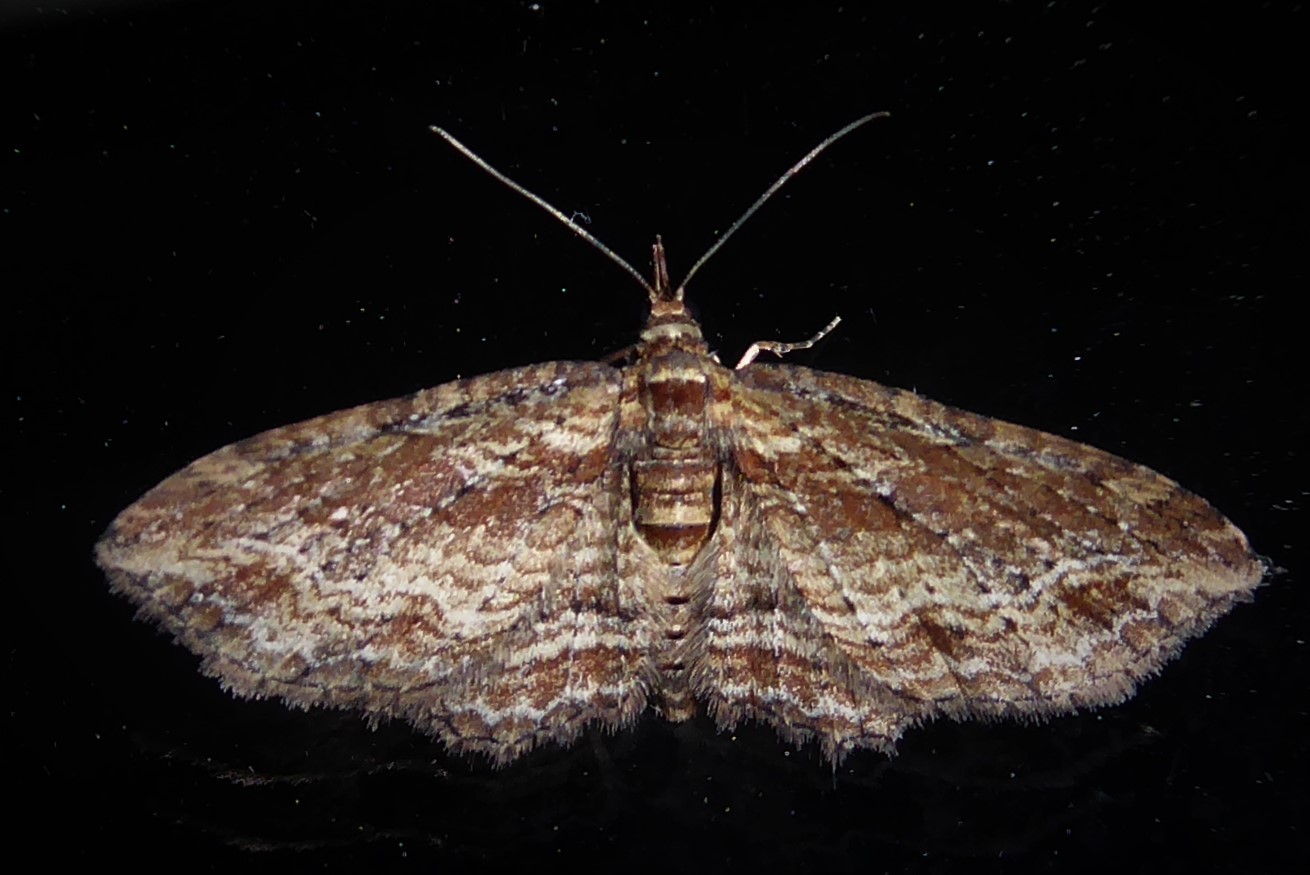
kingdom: Animalia
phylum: Arthropoda
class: Insecta
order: Lepidoptera
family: Geometridae
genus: Chloroclystis
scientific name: Chloroclystis filata
